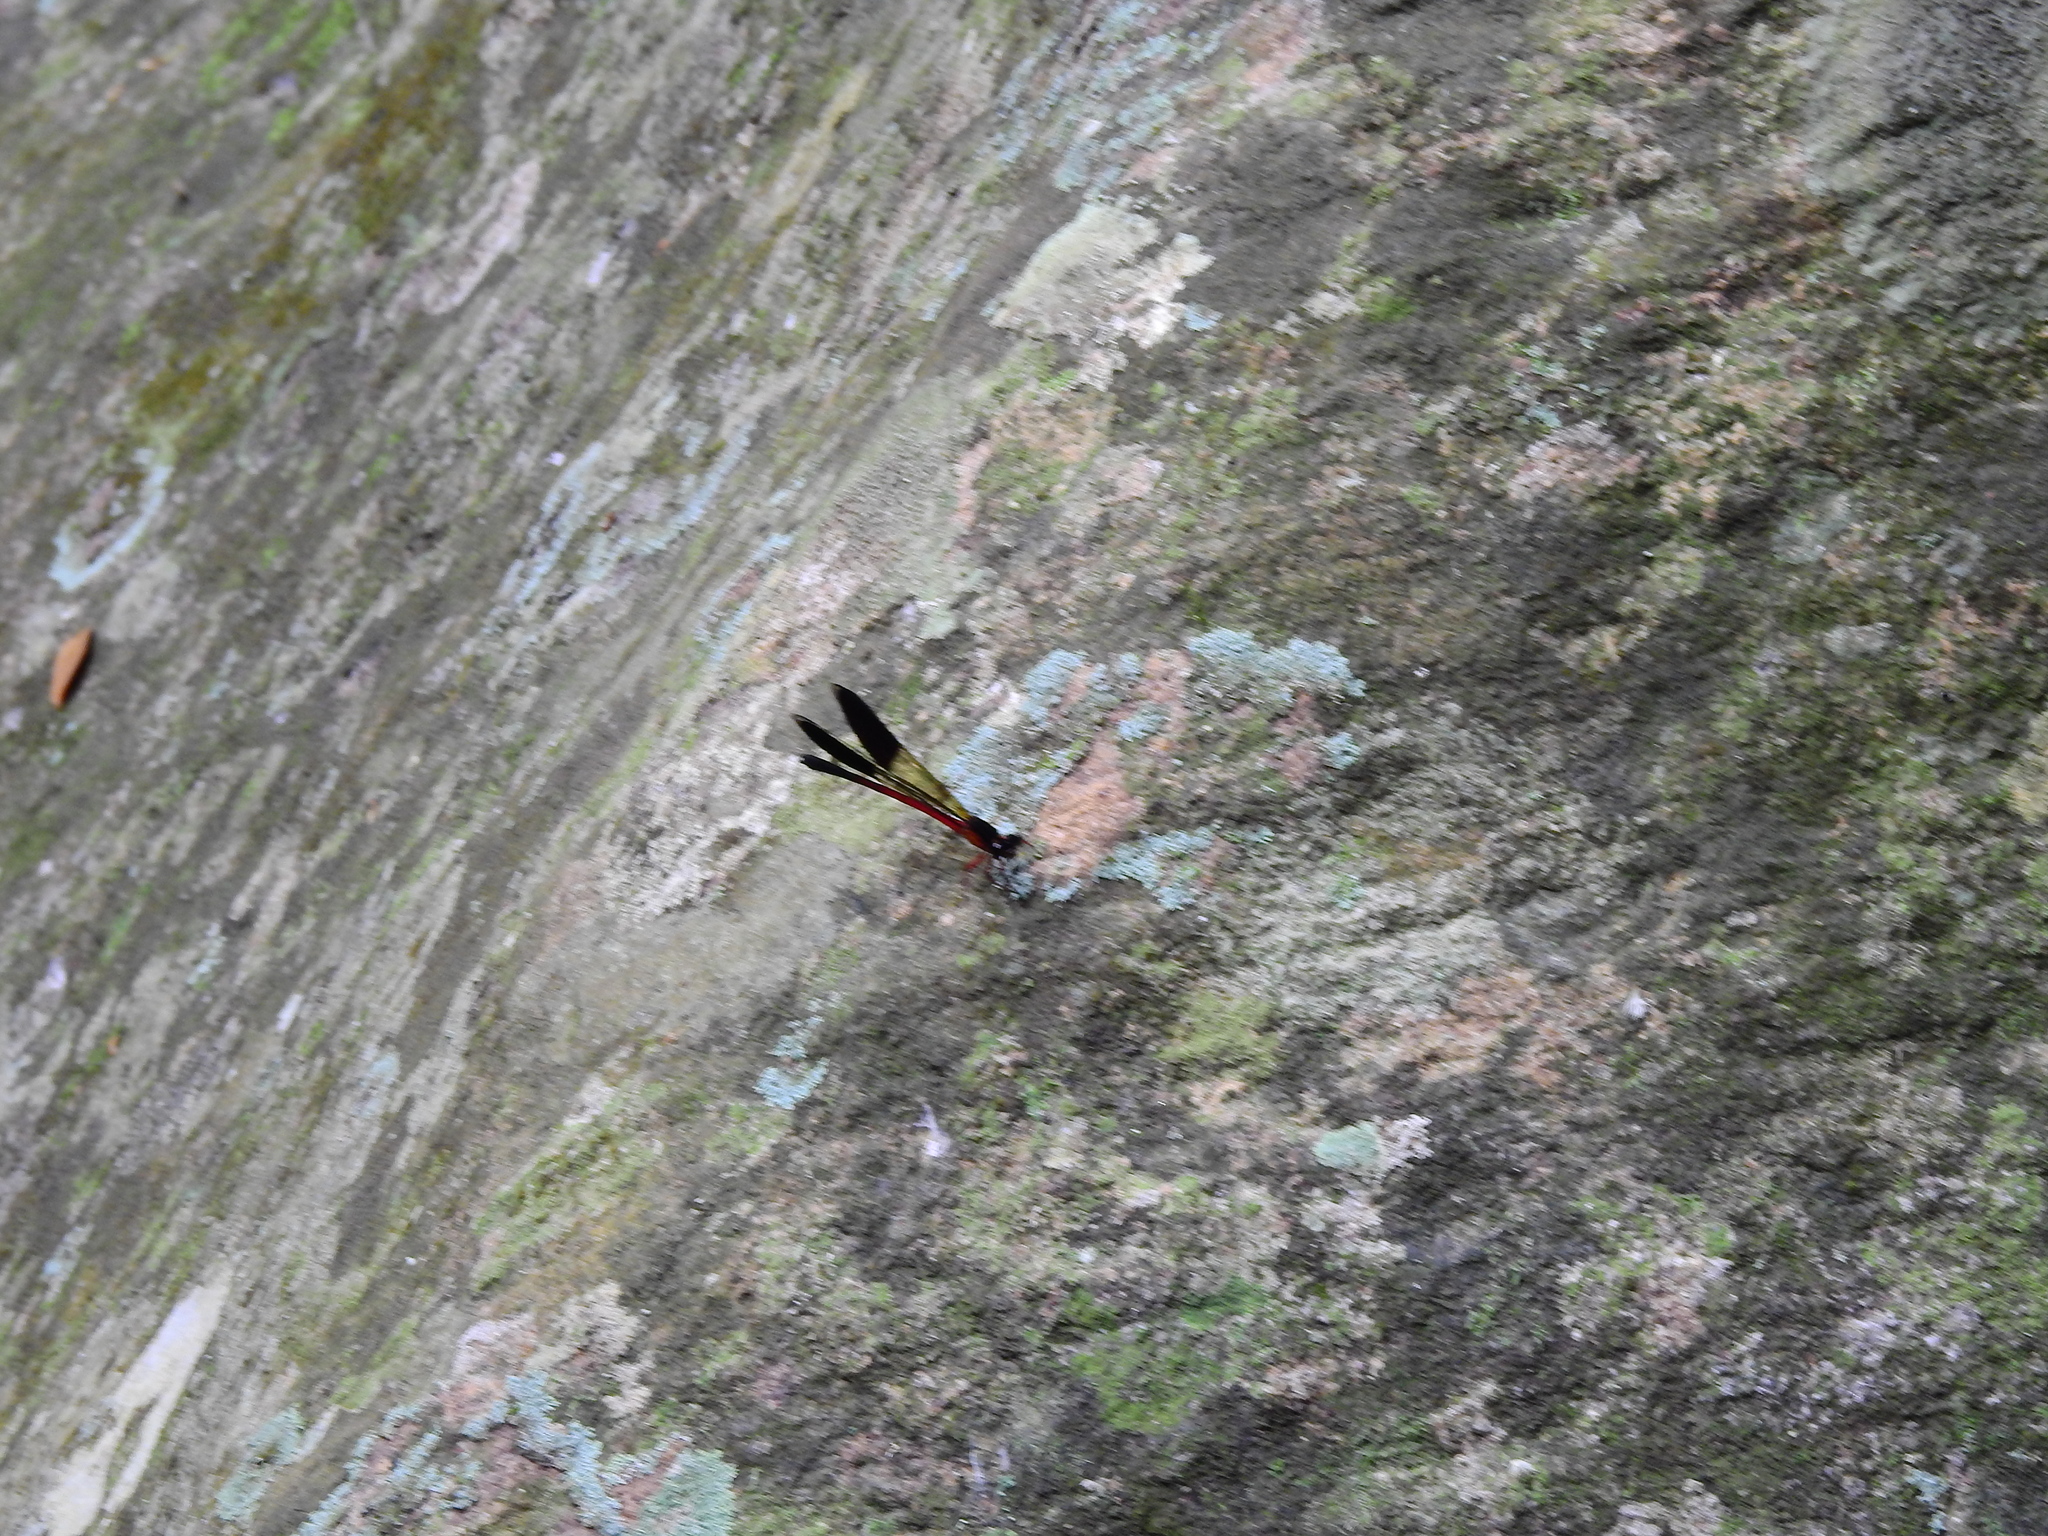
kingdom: Animalia
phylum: Arthropoda
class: Insecta
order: Odonata
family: Euphaeidae
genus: Euphaea
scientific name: Euphaea cardinalis
